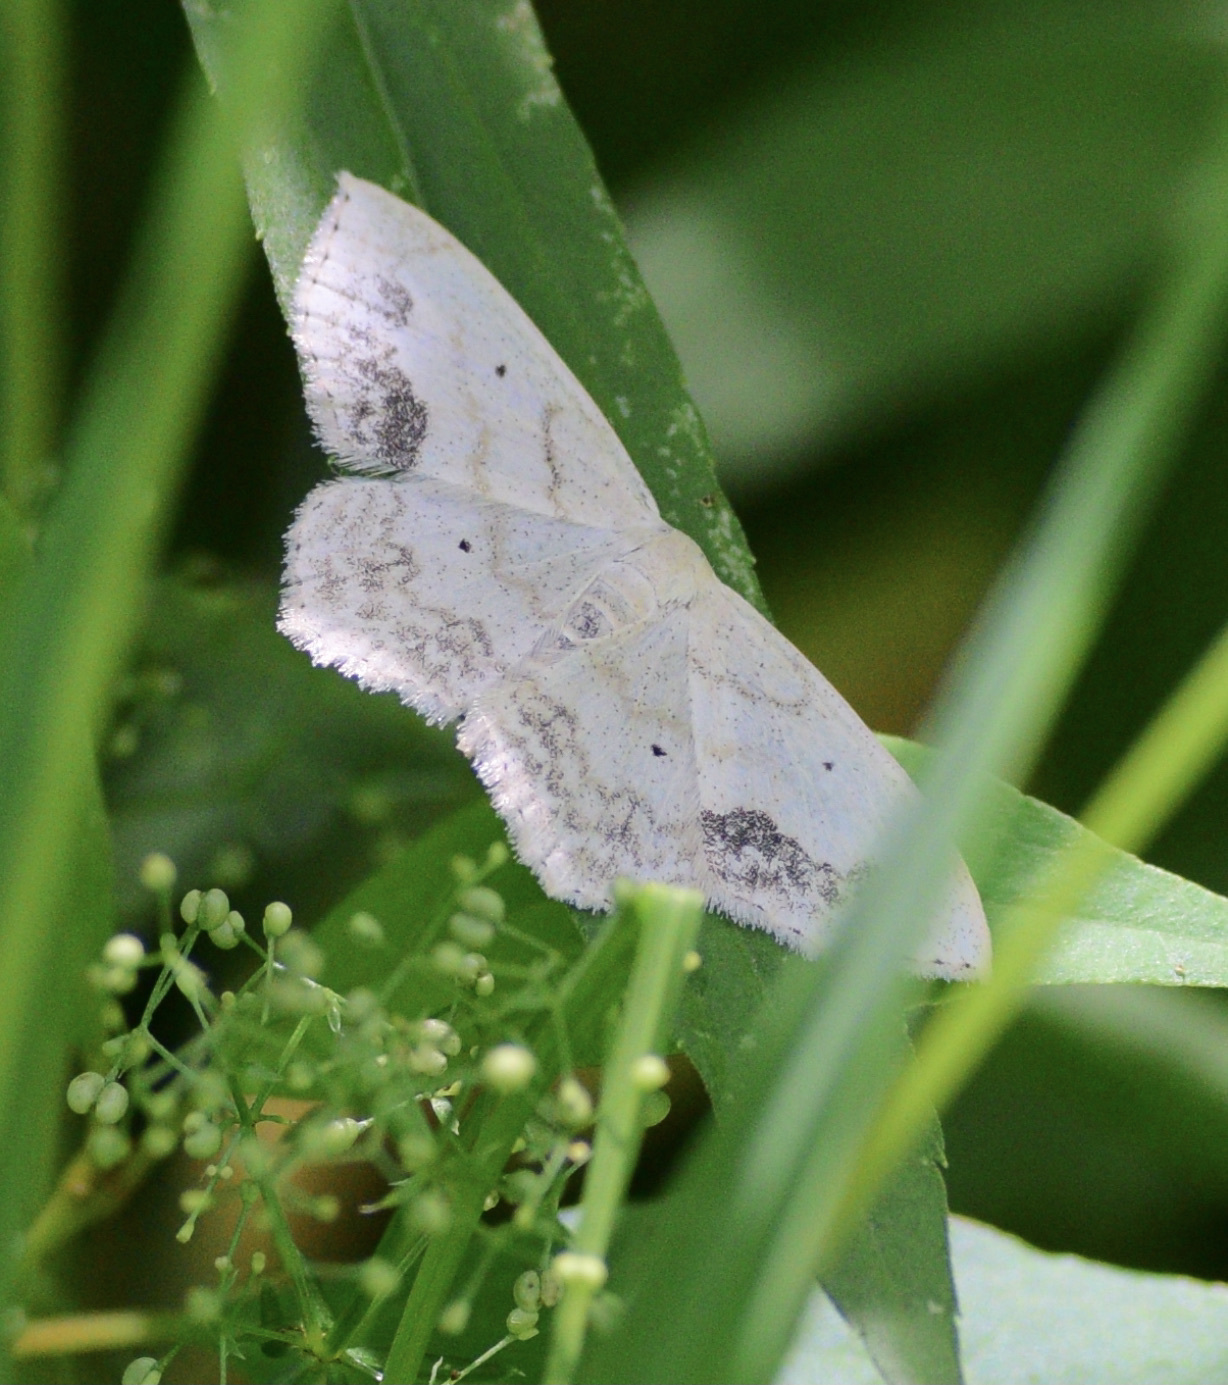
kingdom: Animalia
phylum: Arthropoda
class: Insecta
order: Lepidoptera
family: Geometridae
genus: Scopula
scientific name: Scopula limboundata
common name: Large lace border
